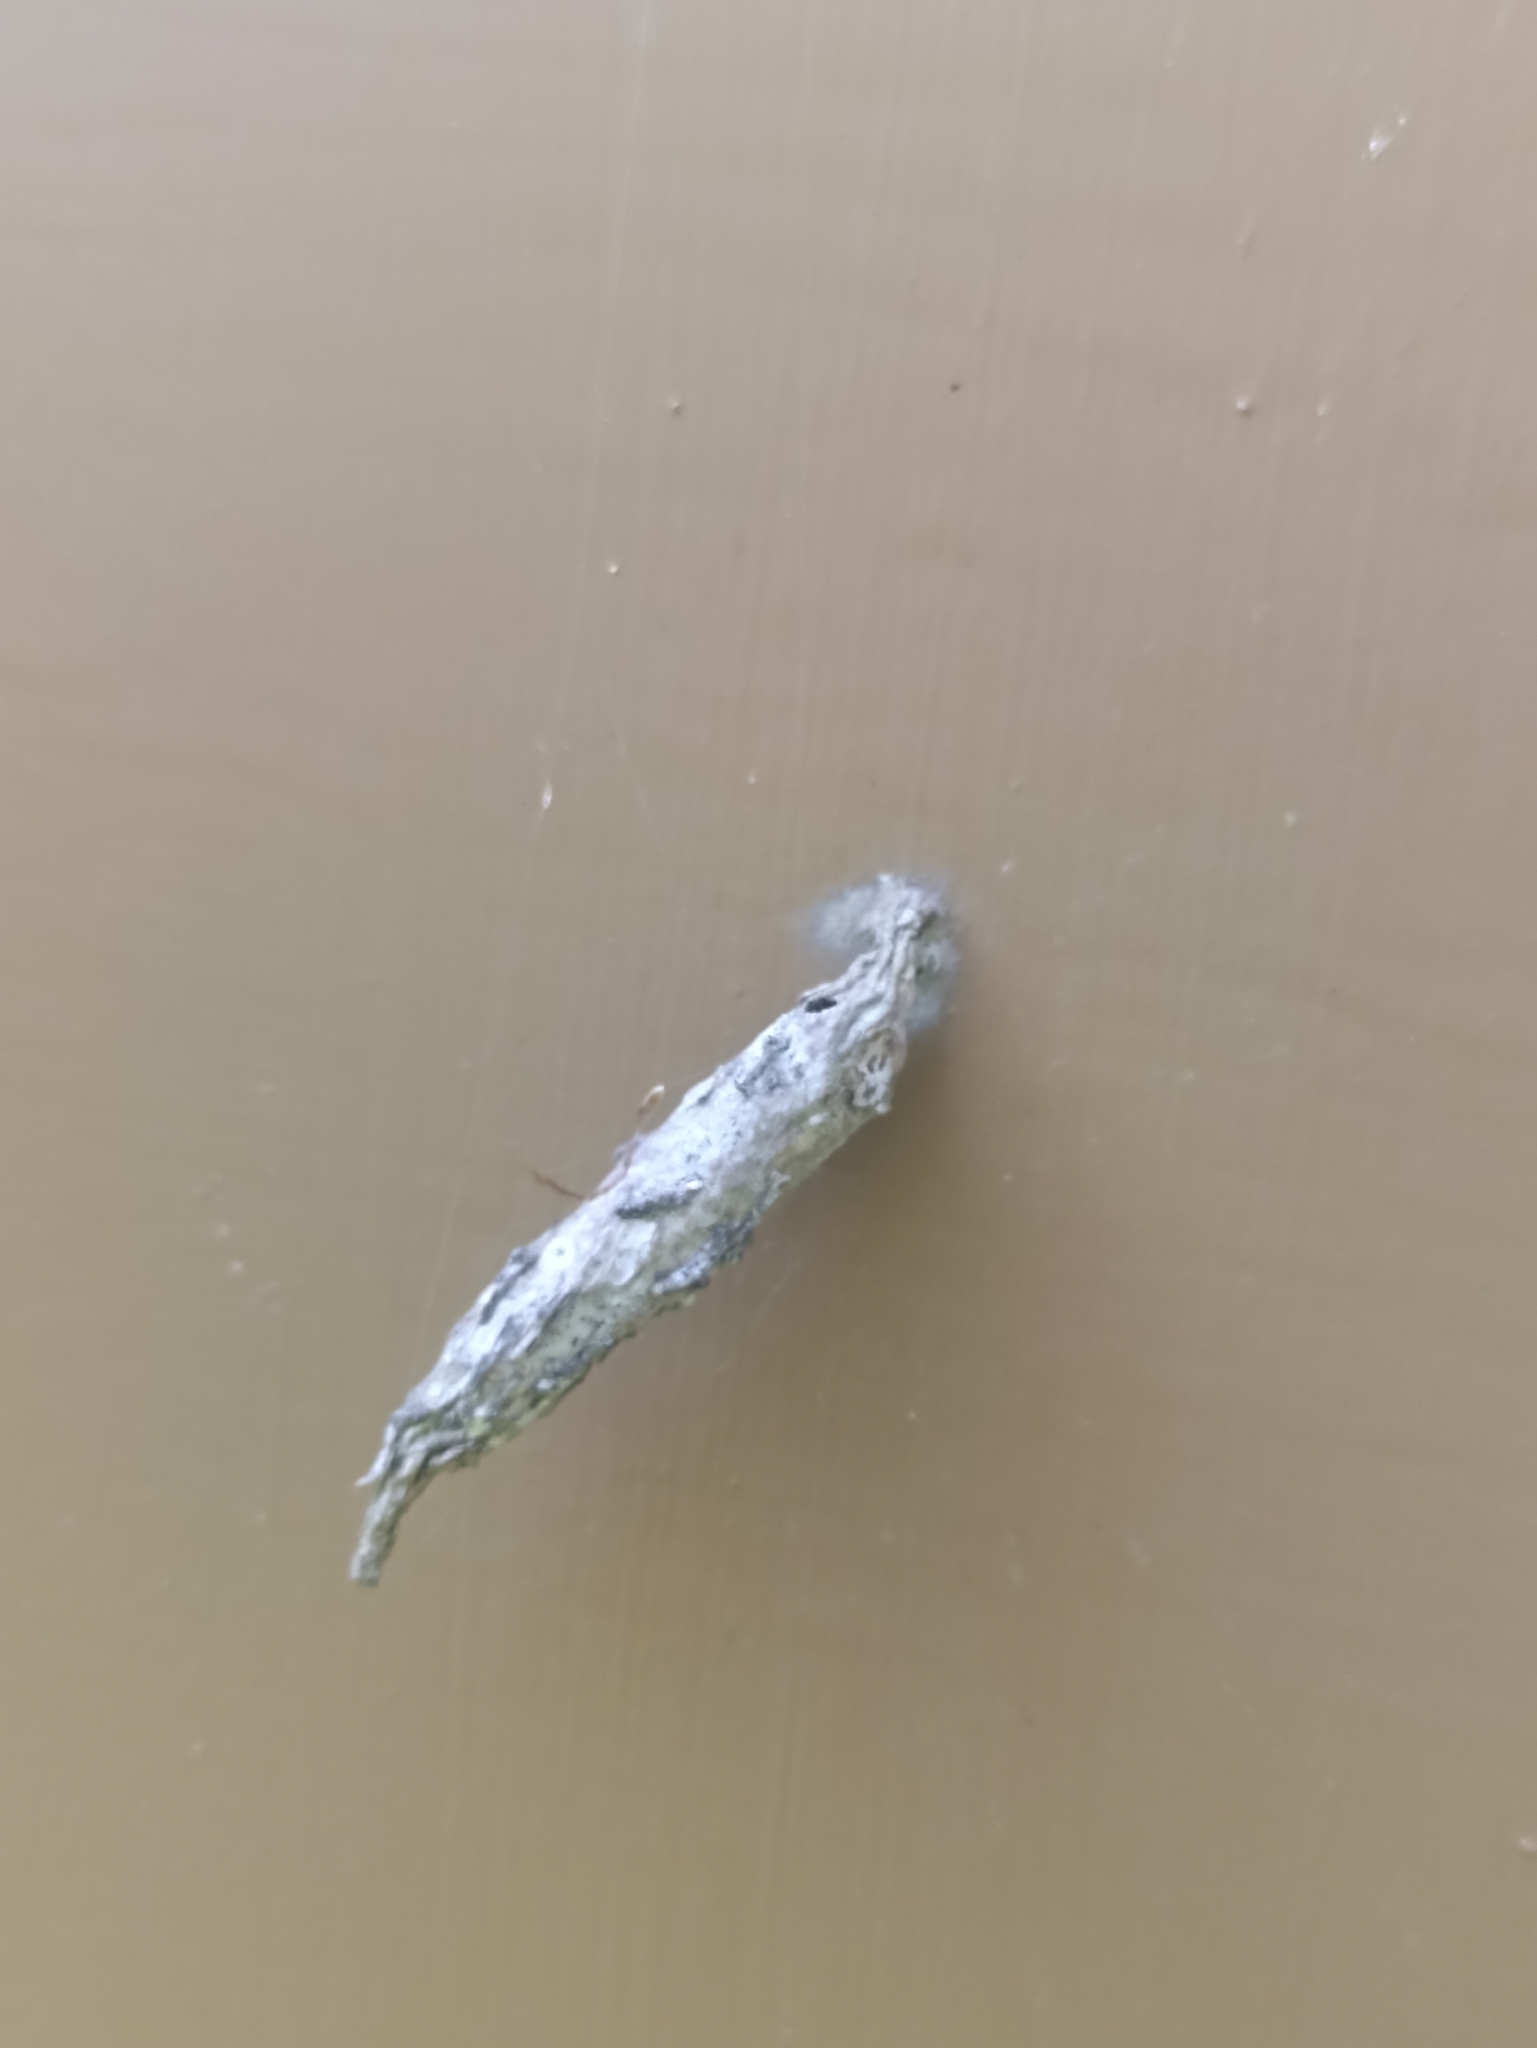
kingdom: Animalia
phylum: Arthropoda
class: Insecta
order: Lepidoptera
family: Psychidae
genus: Liothula
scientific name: Liothula omnivora
